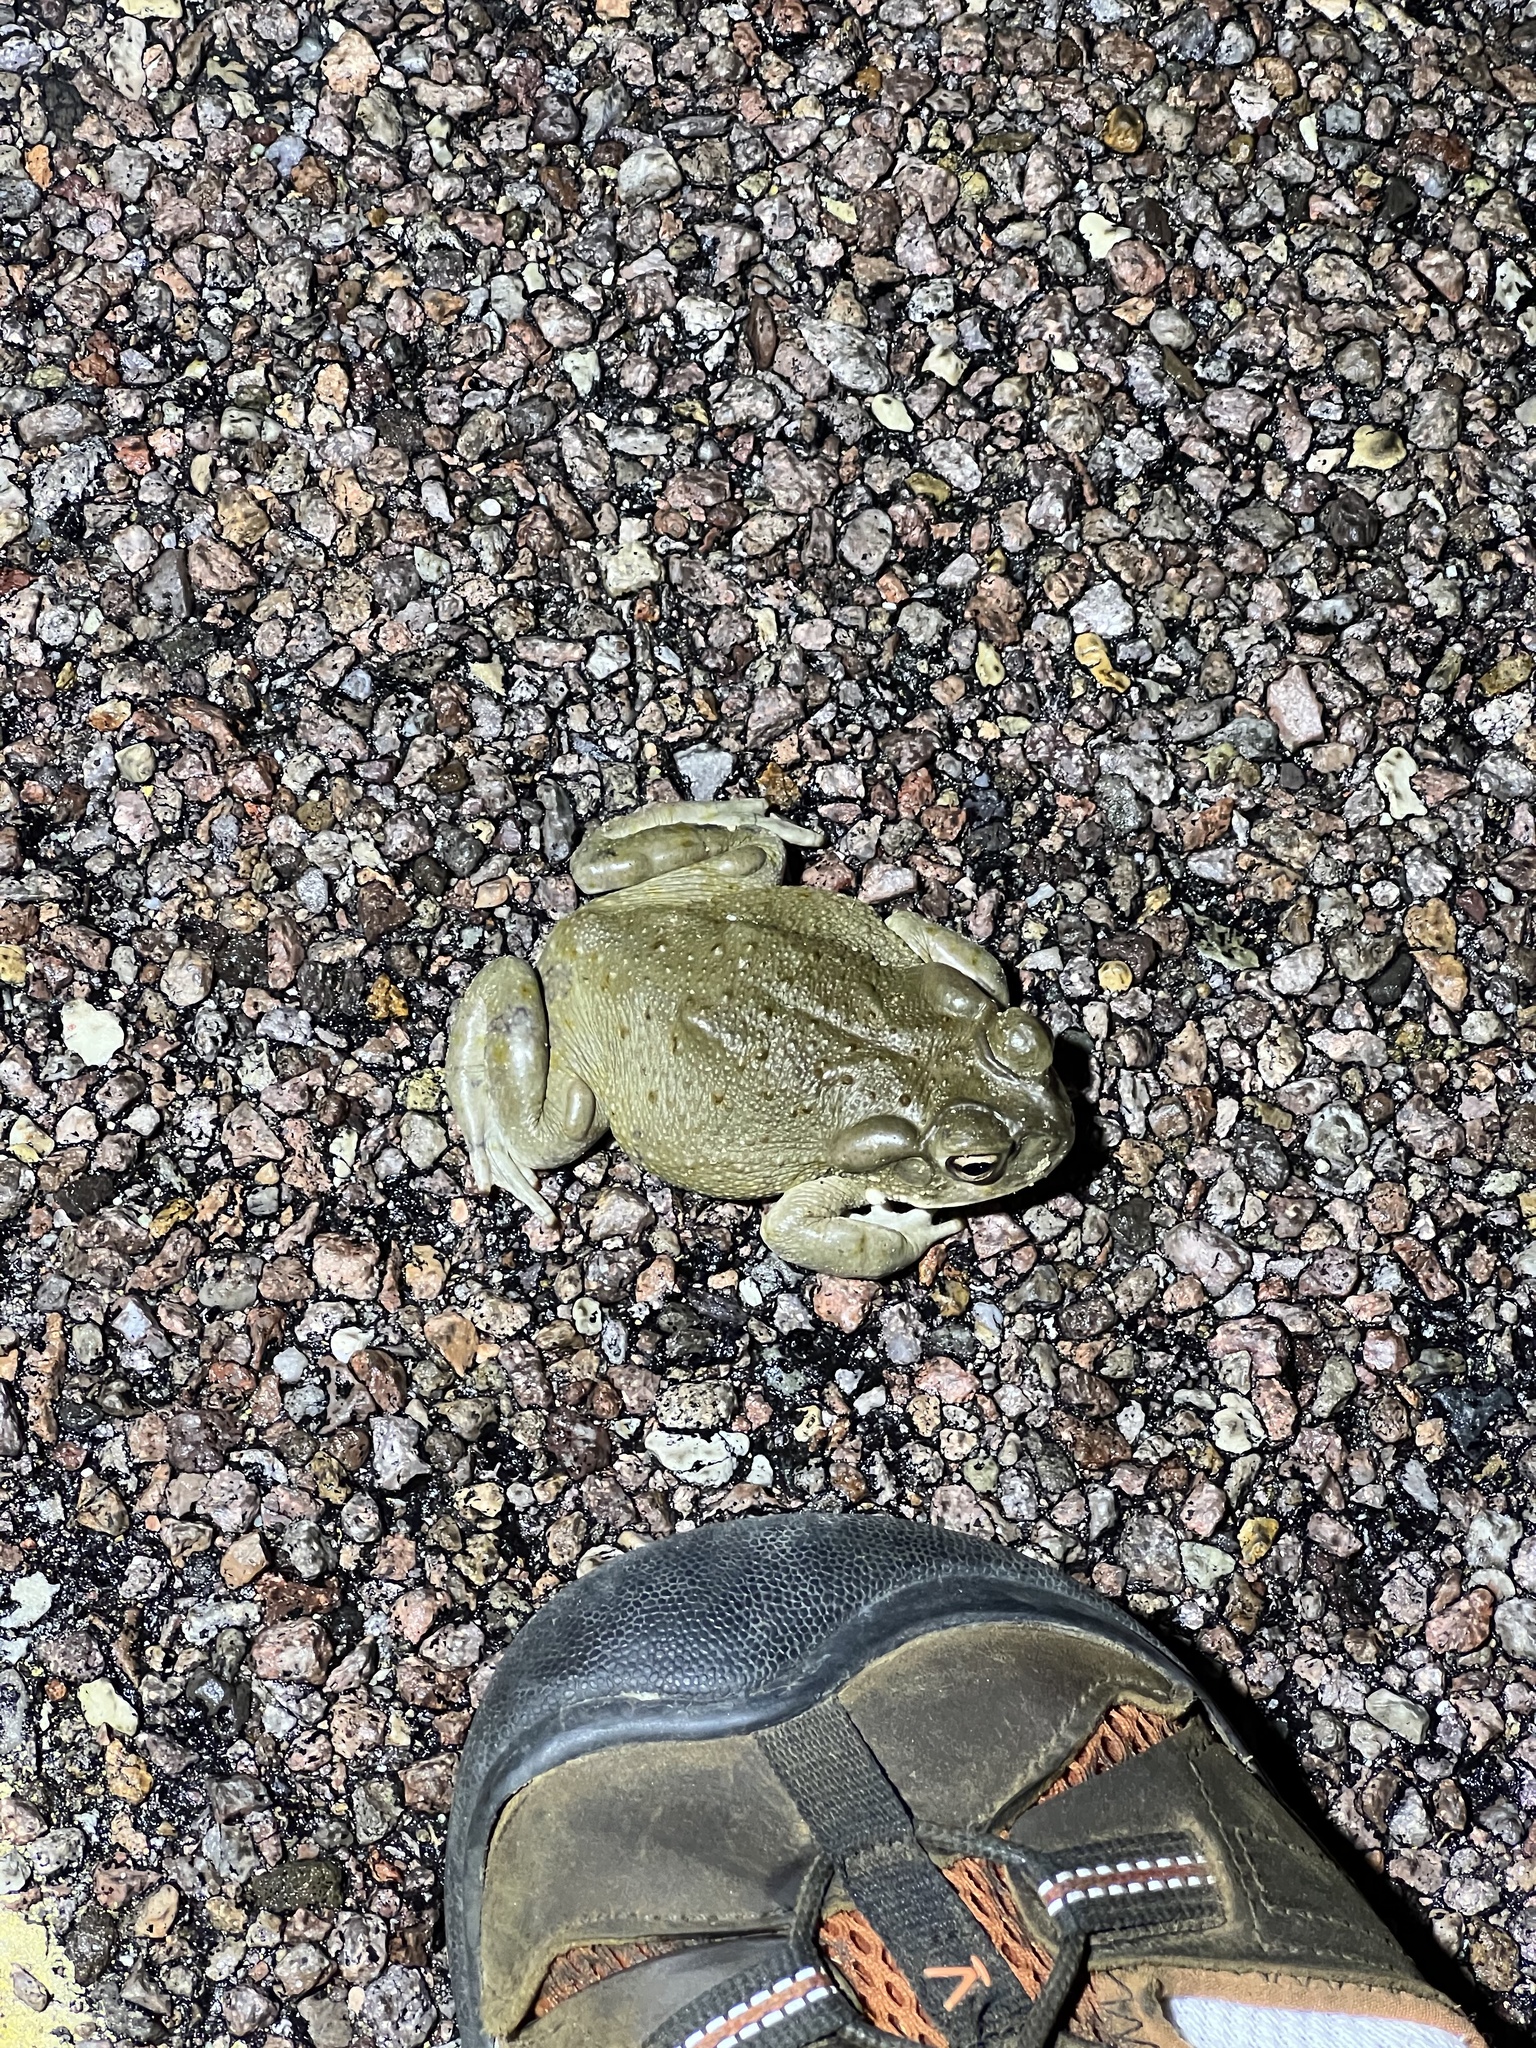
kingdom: Animalia
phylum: Chordata
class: Amphibia
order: Anura
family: Bufonidae
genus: Incilius
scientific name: Incilius alvarius
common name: Sonoran desert toad
